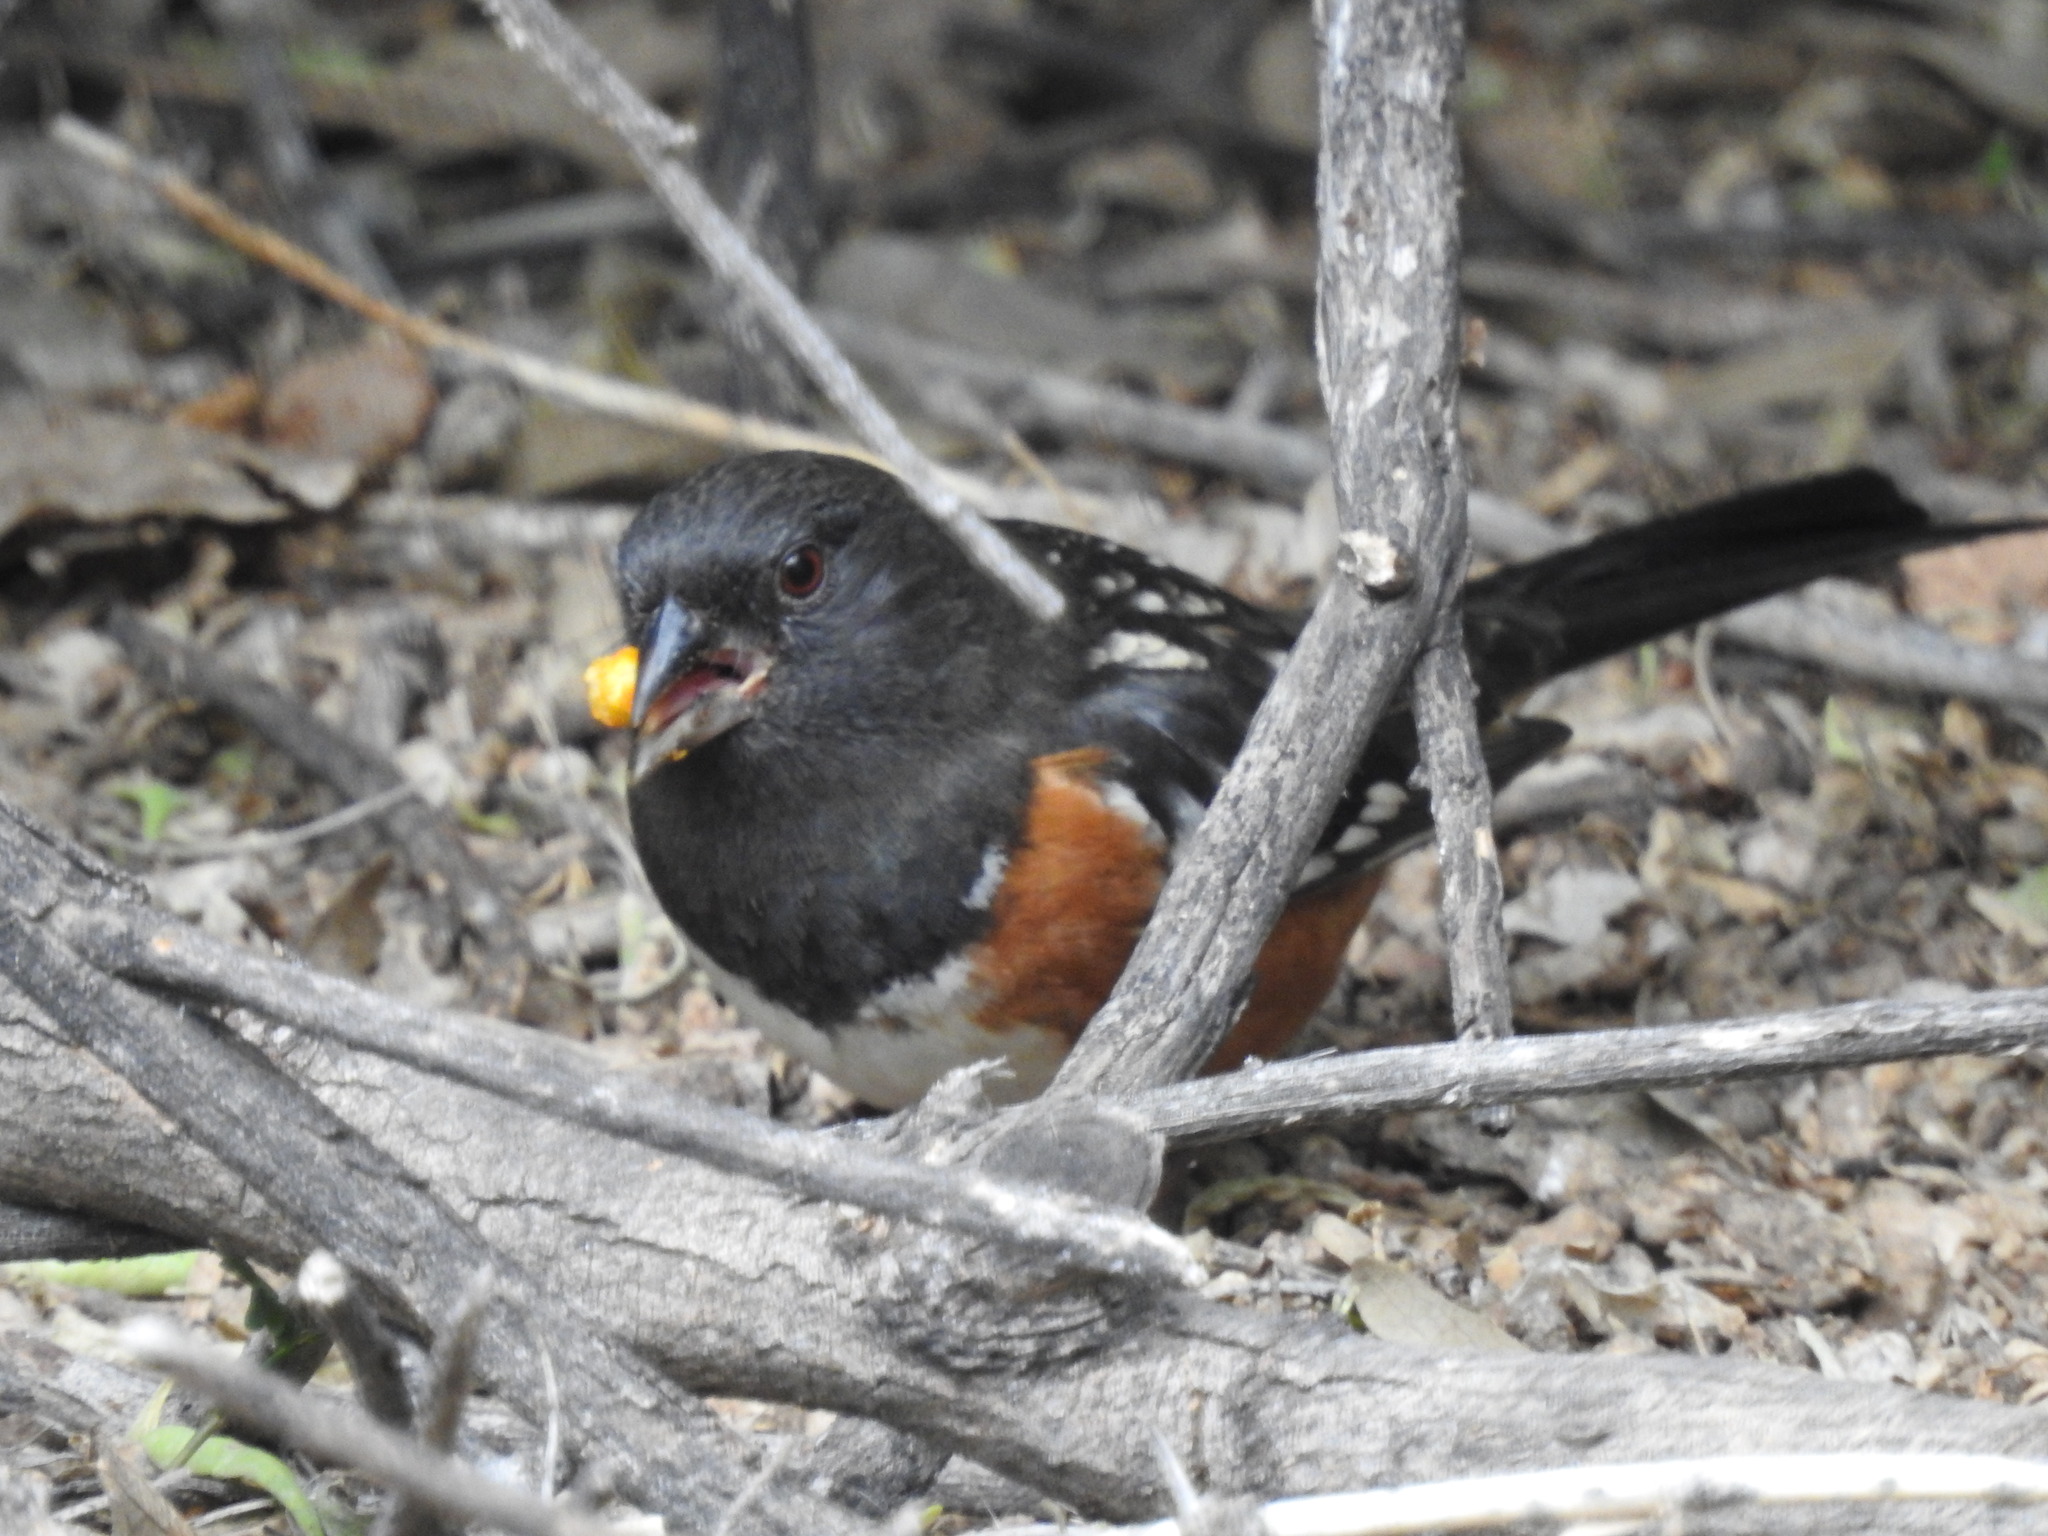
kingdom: Animalia
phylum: Chordata
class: Aves
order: Passeriformes
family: Passerellidae
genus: Pipilo
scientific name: Pipilo maculatus
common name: Spotted towhee
